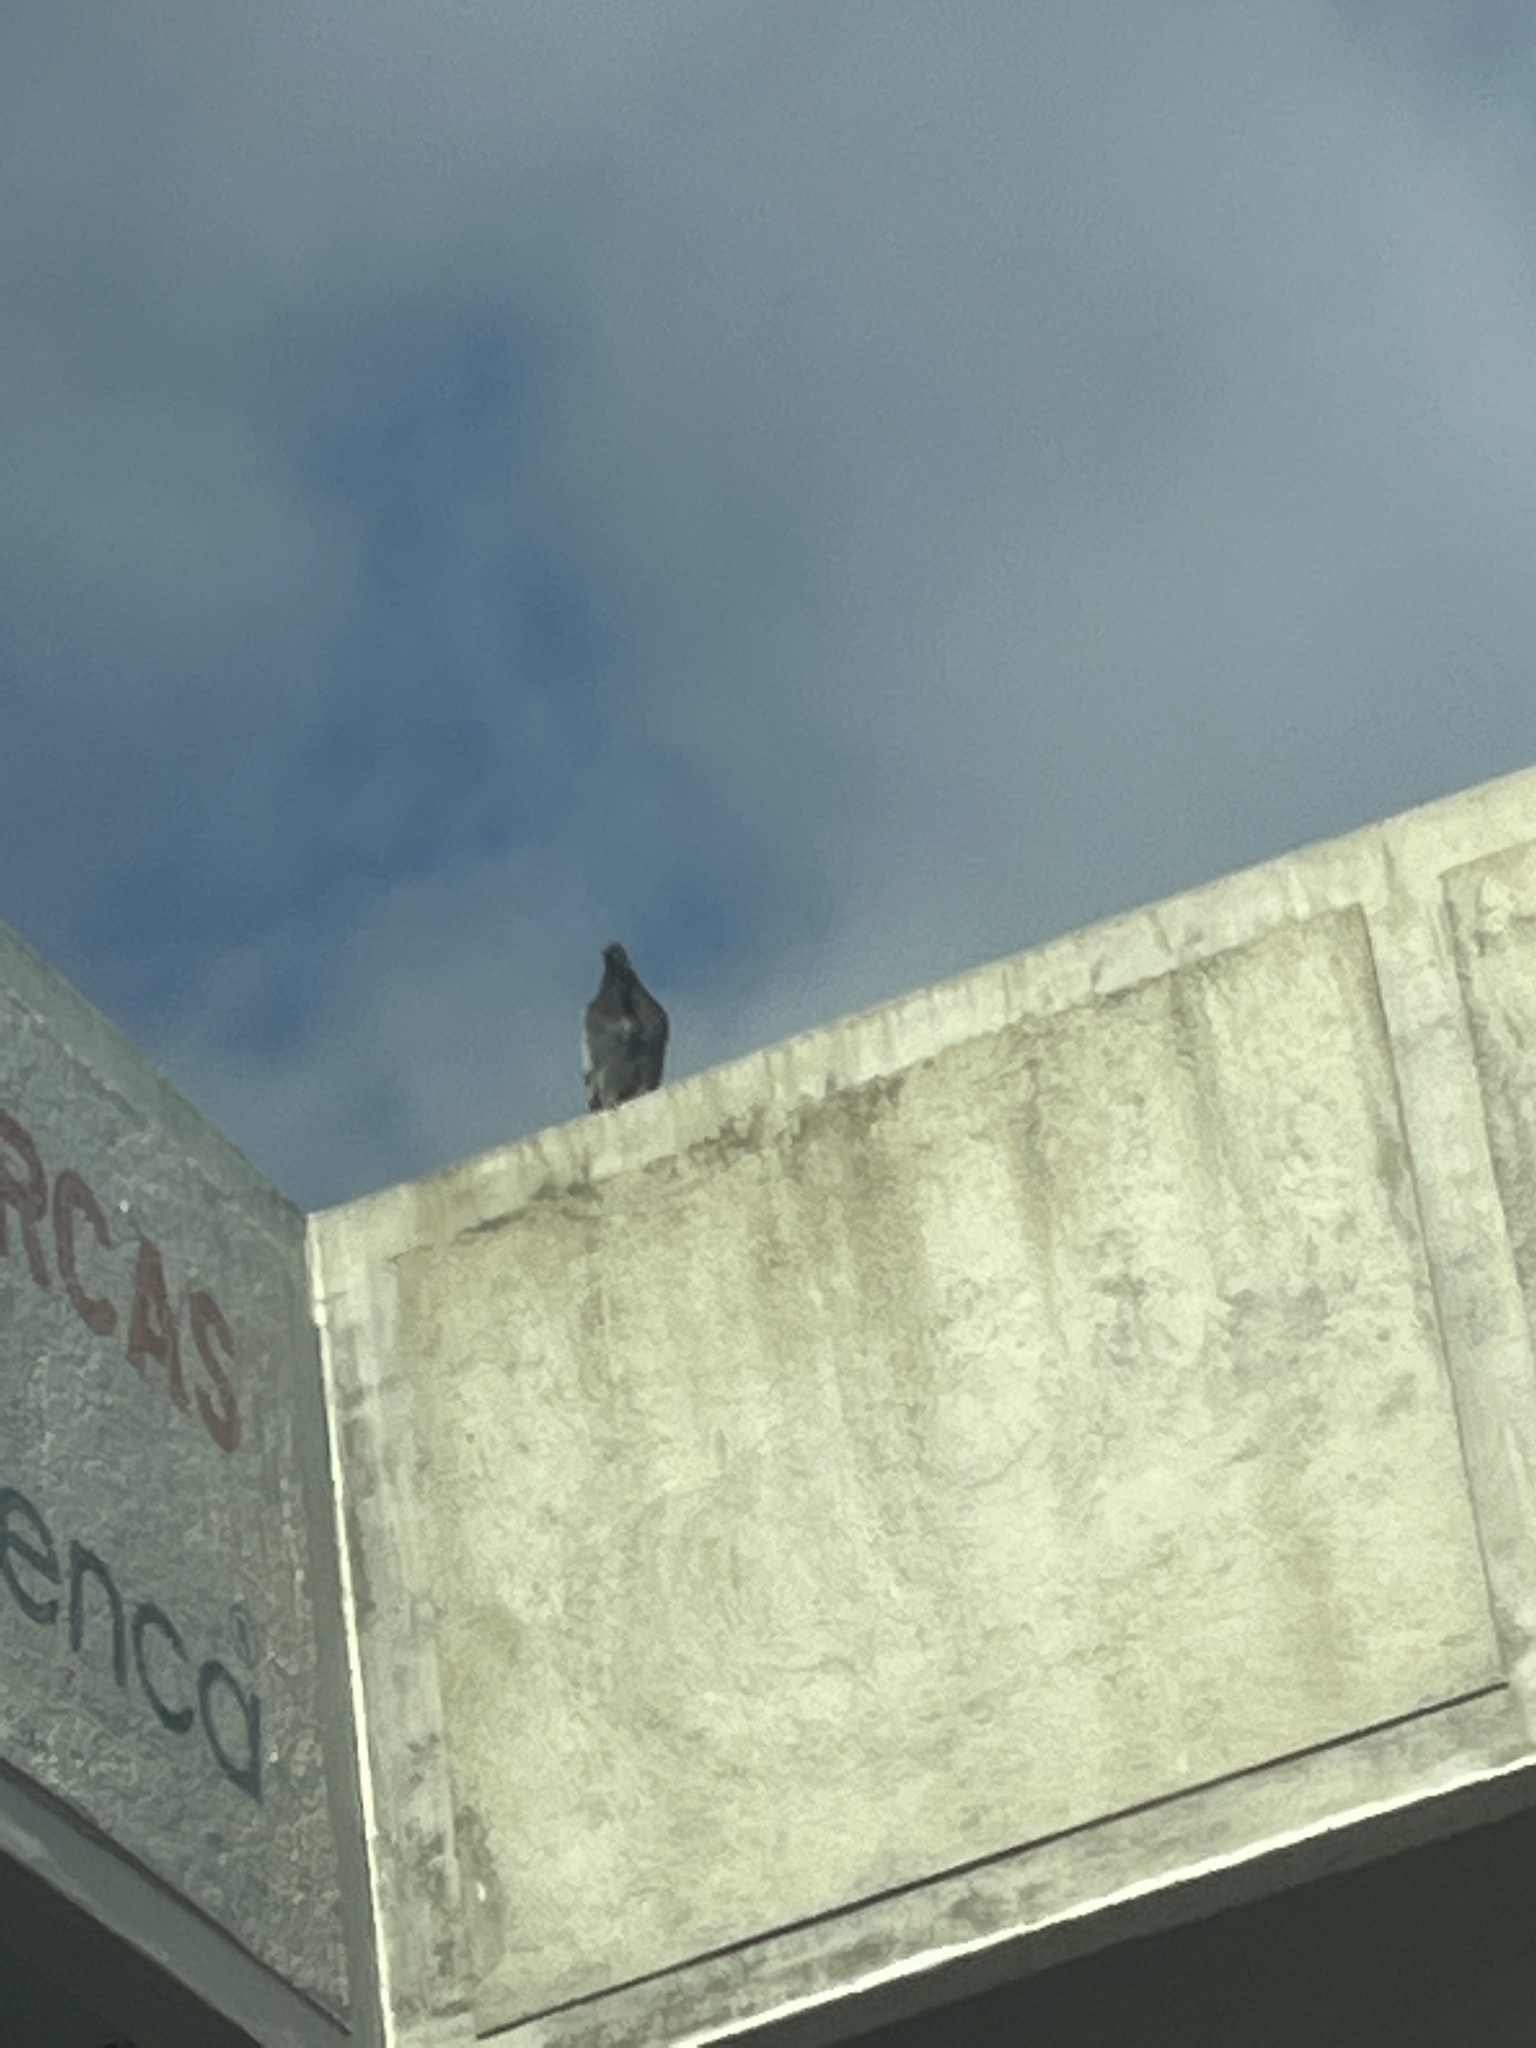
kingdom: Animalia
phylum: Chordata
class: Aves
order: Columbiformes
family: Columbidae
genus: Columba
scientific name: Columba livia
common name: Rock pigeon
